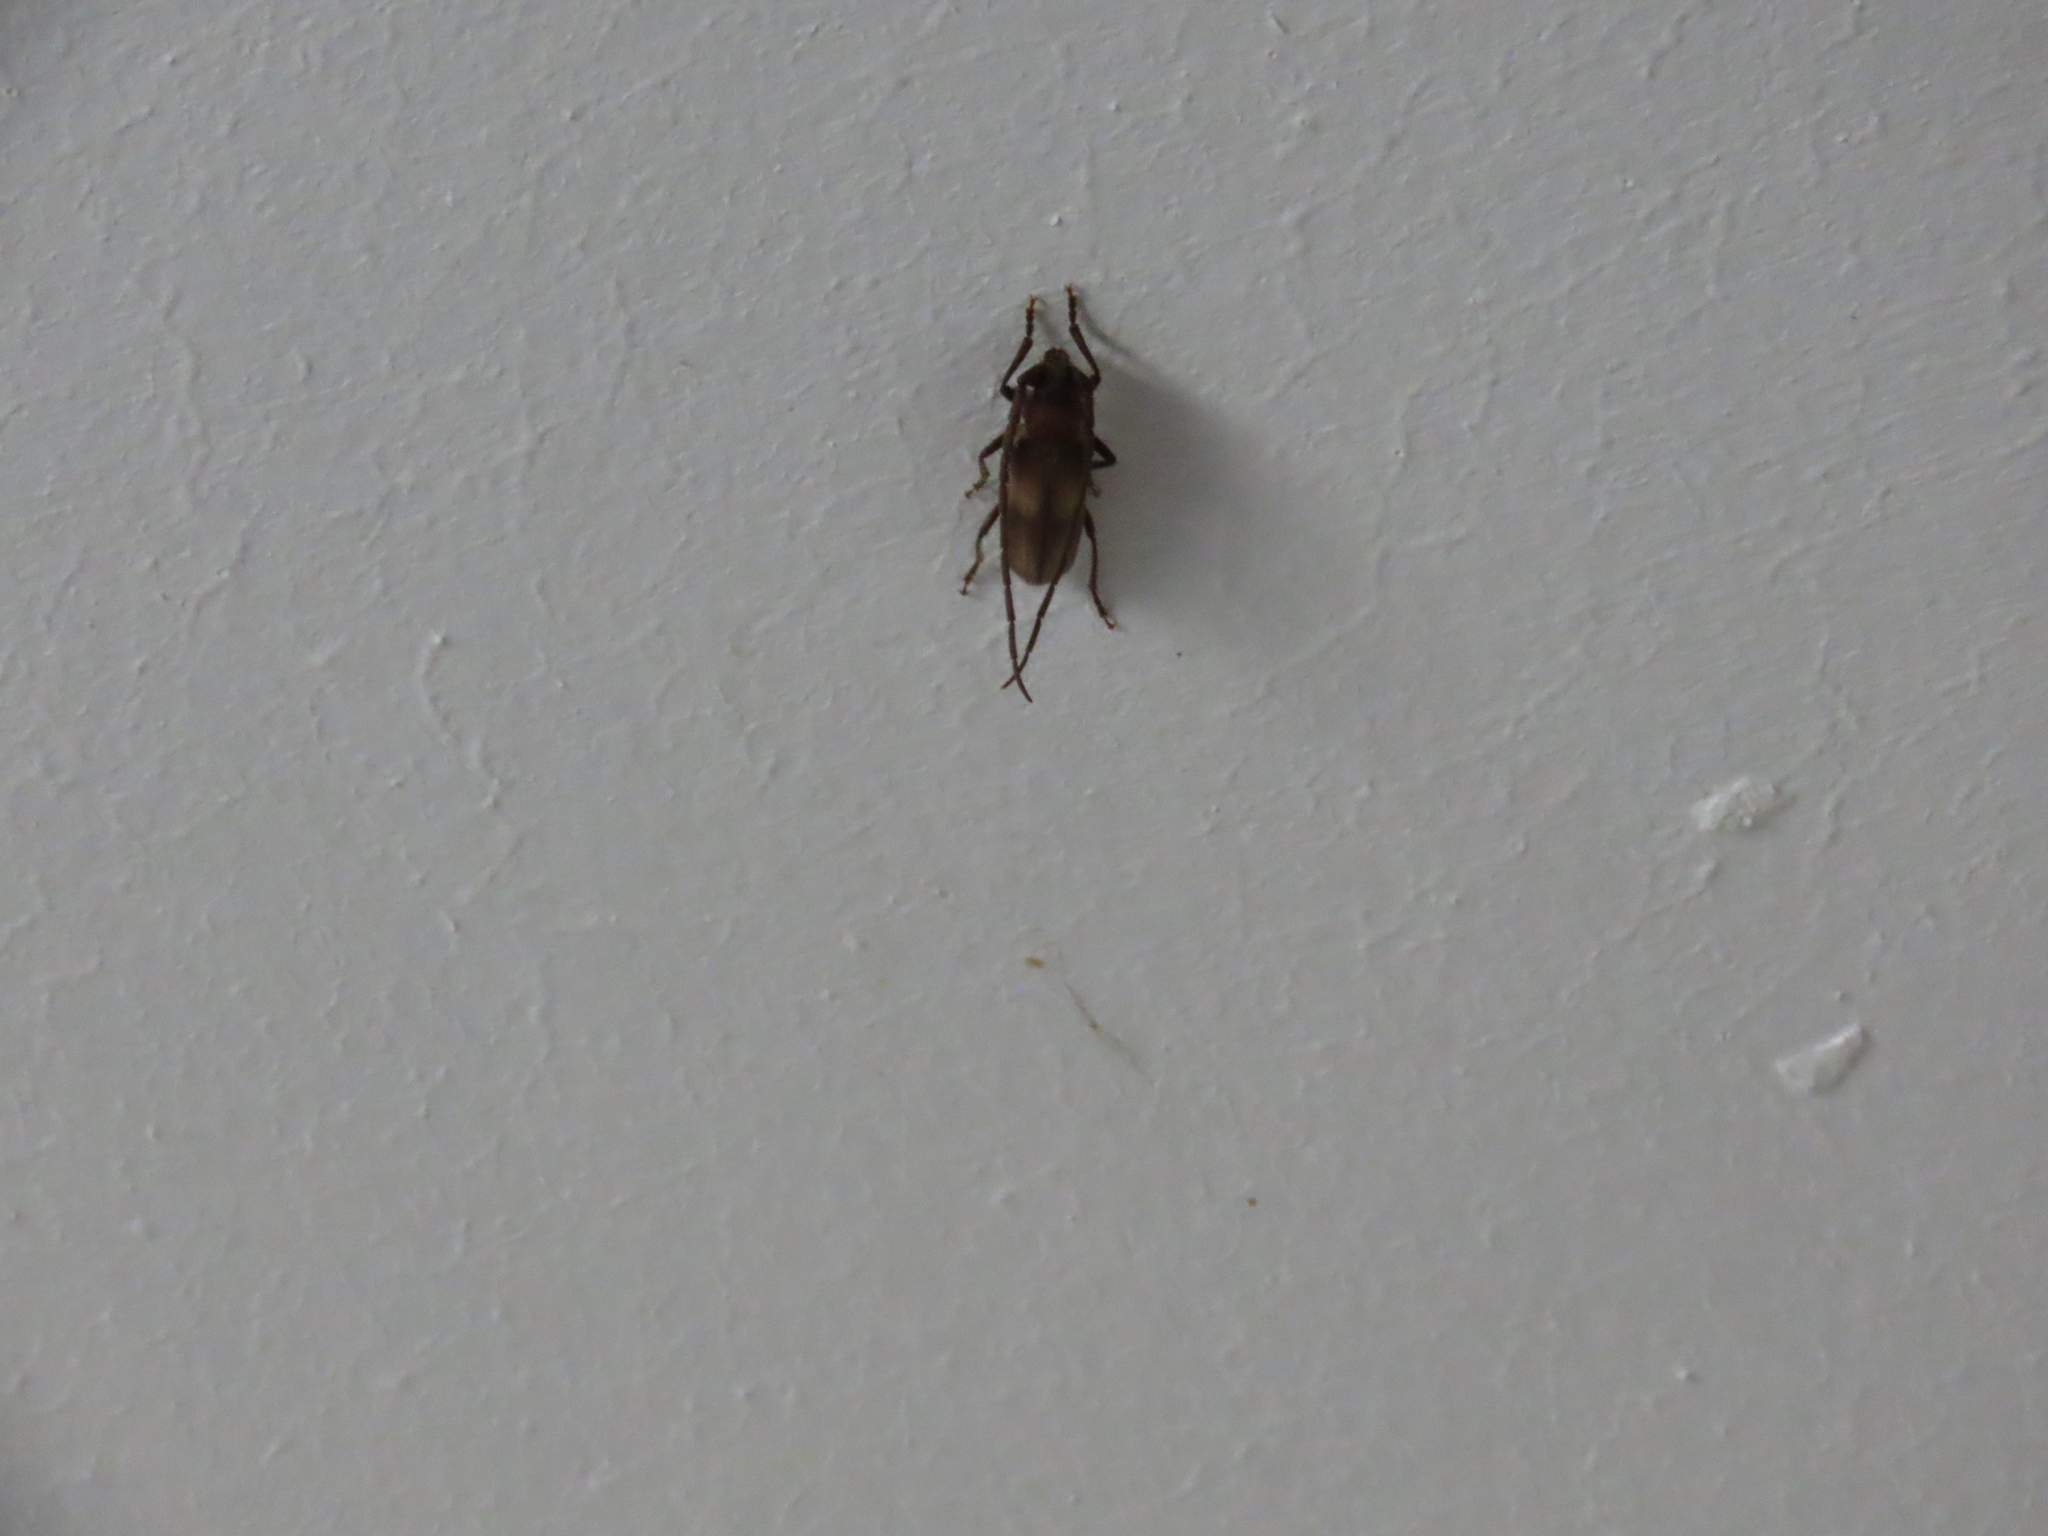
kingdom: Animalia
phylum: Arthropoda
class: Insecta
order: Coleoptera
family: Cerambycidae
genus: Crinarnoldius
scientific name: Crinarnoldius maculatus
